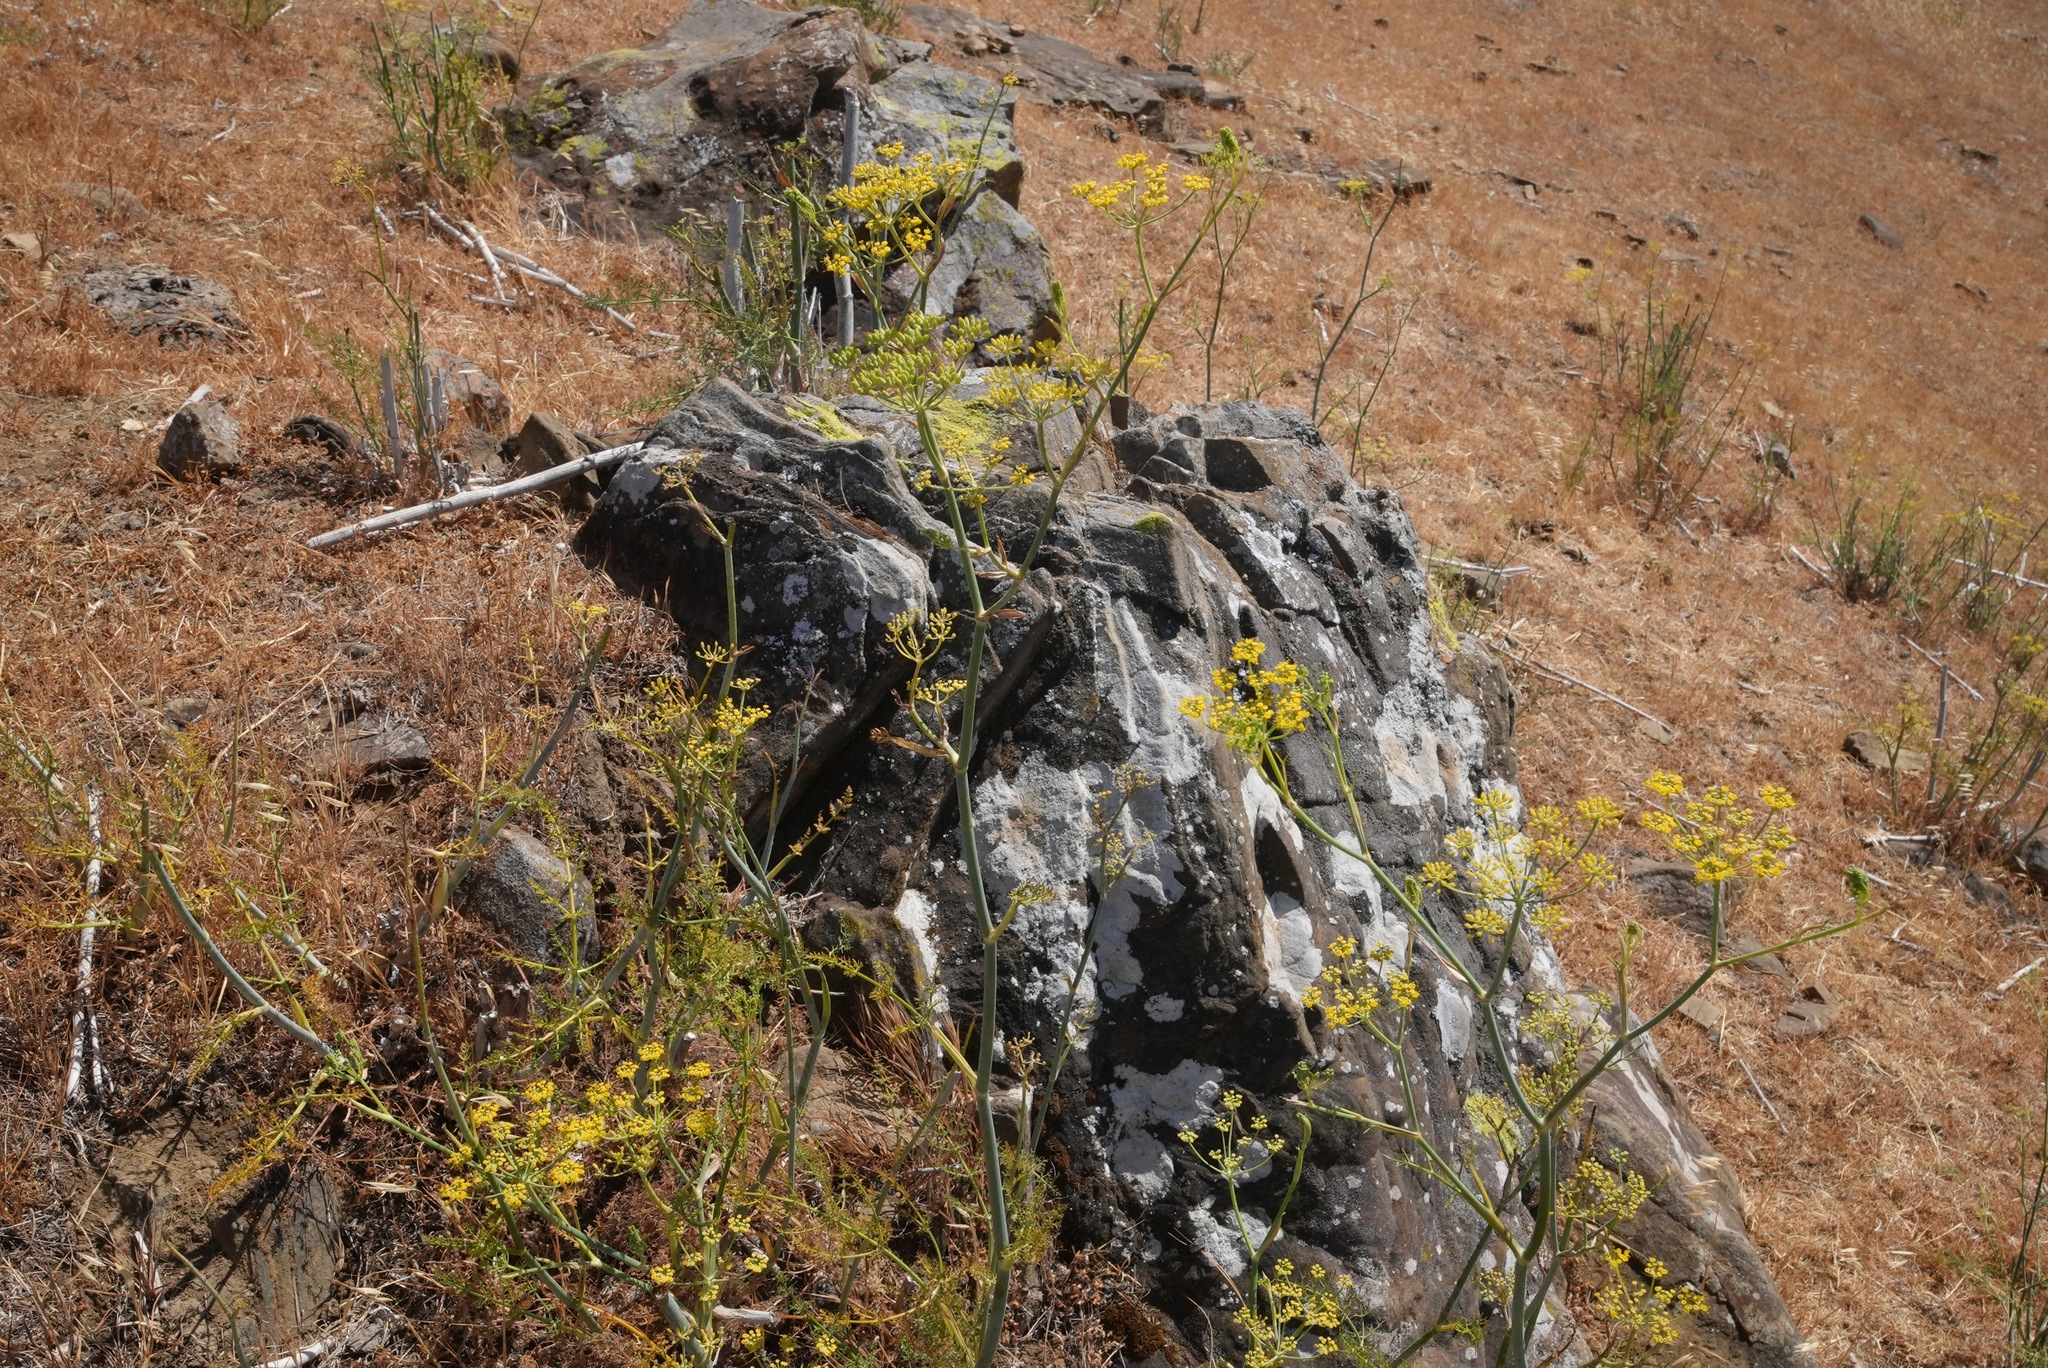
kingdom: Plantae
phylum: Tracheophyta
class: Magnoliopsida
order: Apiales
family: Apiaceae
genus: Foeniculum
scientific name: Foeniculum vulgare
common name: Fennel
